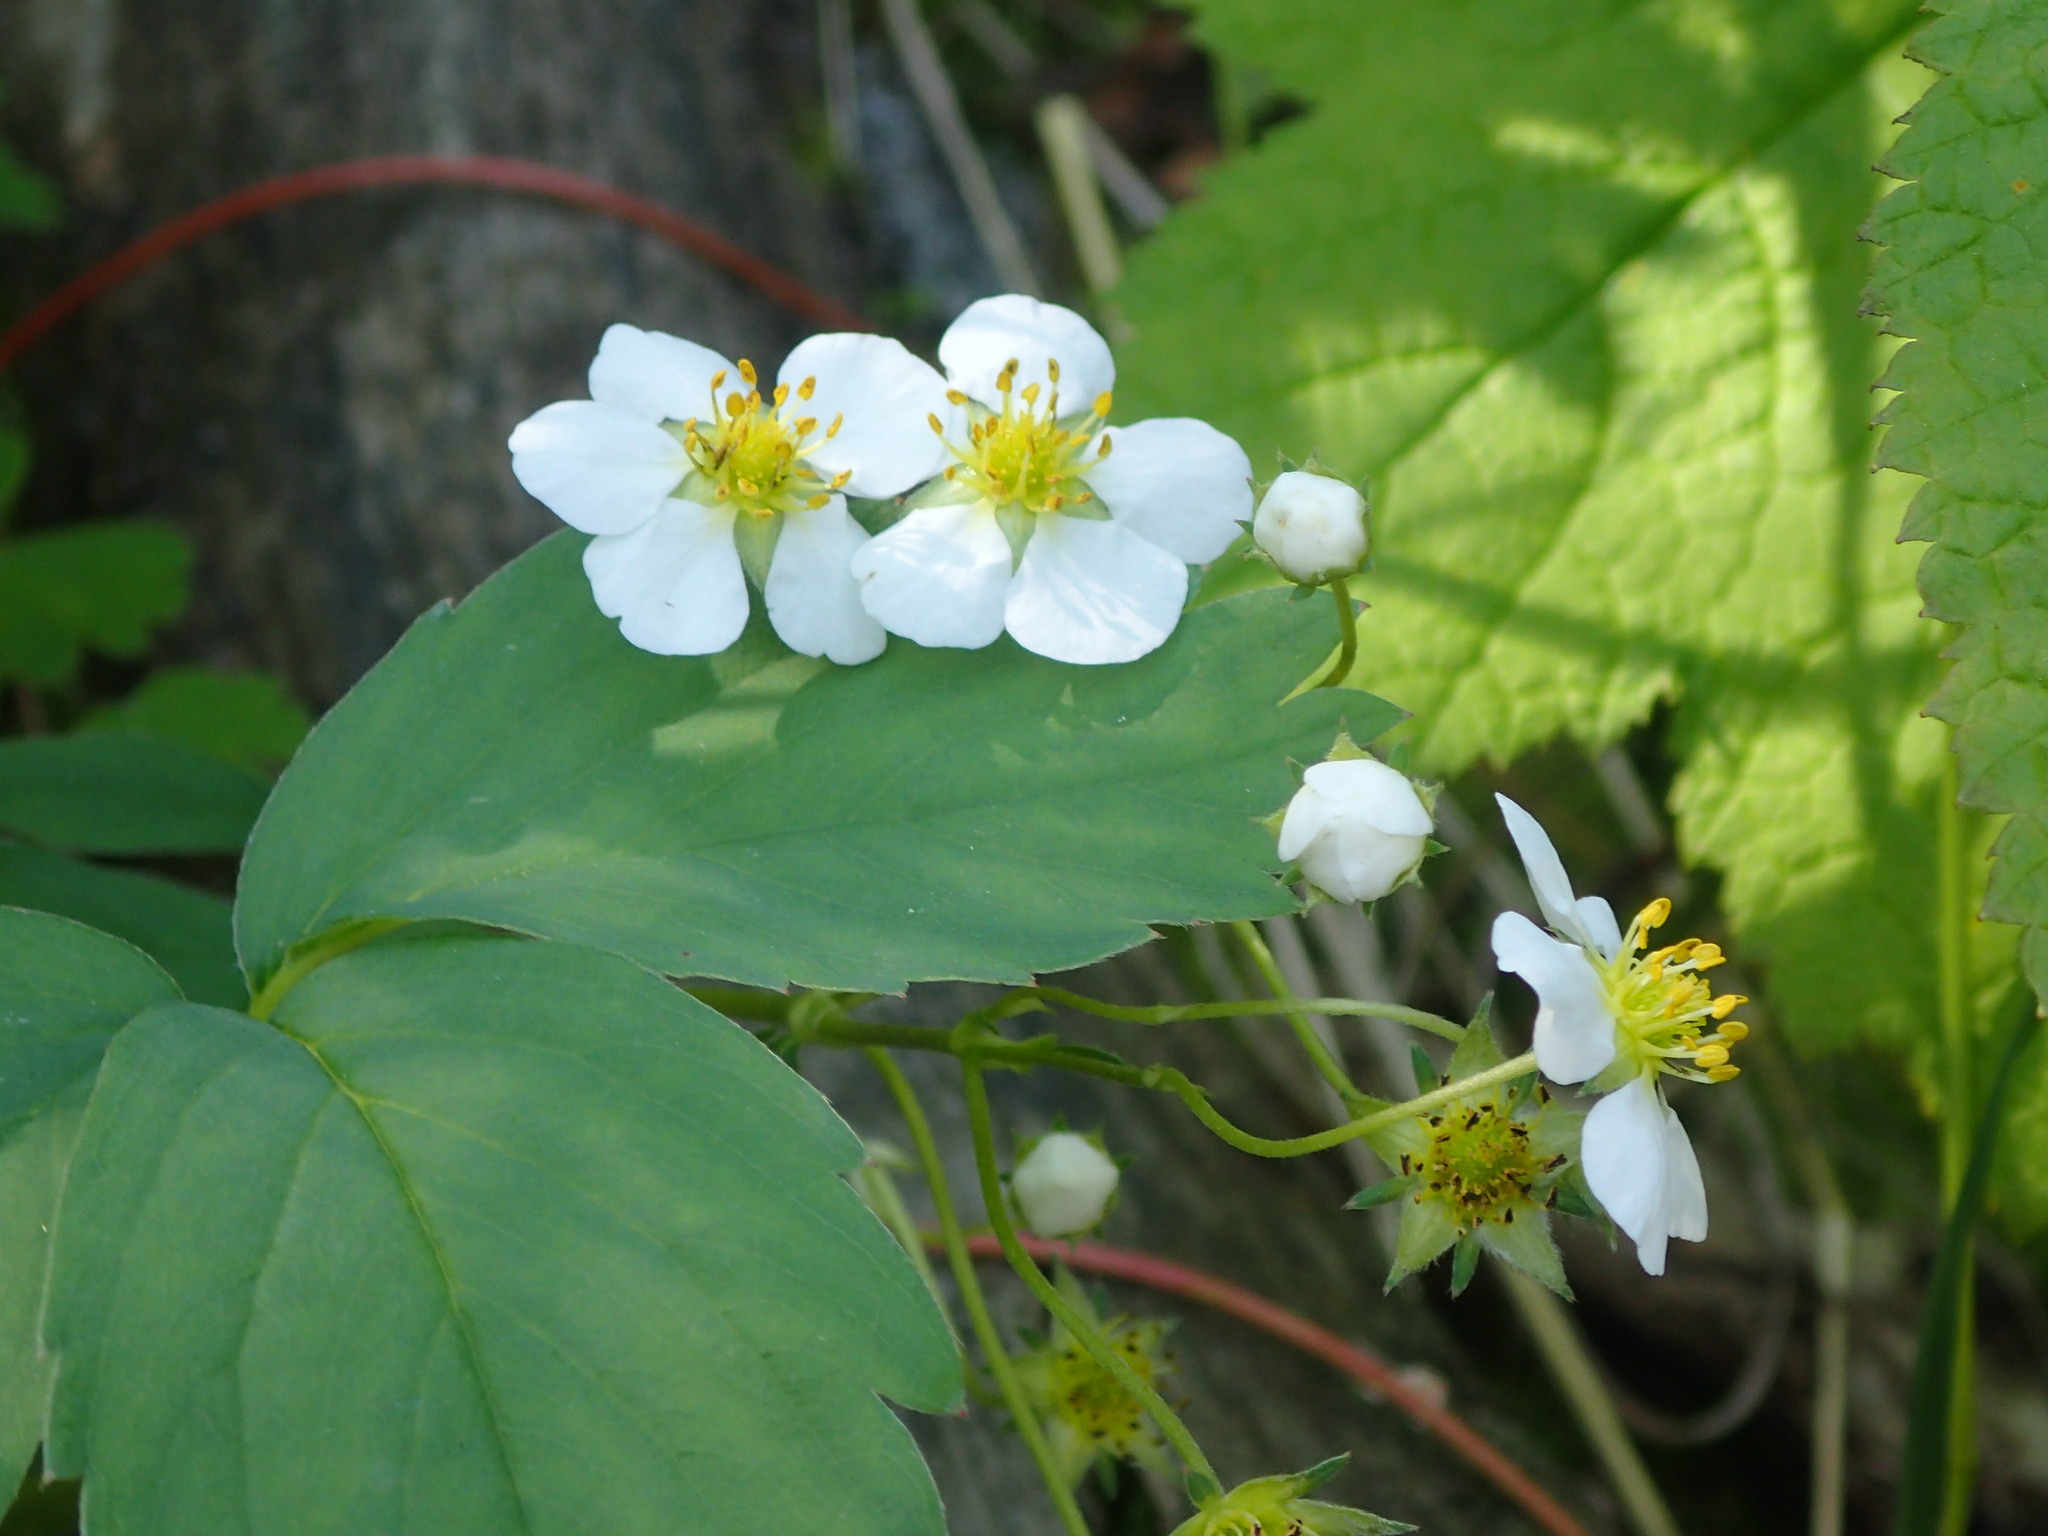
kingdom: Plantae
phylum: Tracheophyta
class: Magnoliopsida
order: Rosales
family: Rosaceae
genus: Fragaria
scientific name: Fragaria virginiana
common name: Thickleaved wild strawberry
